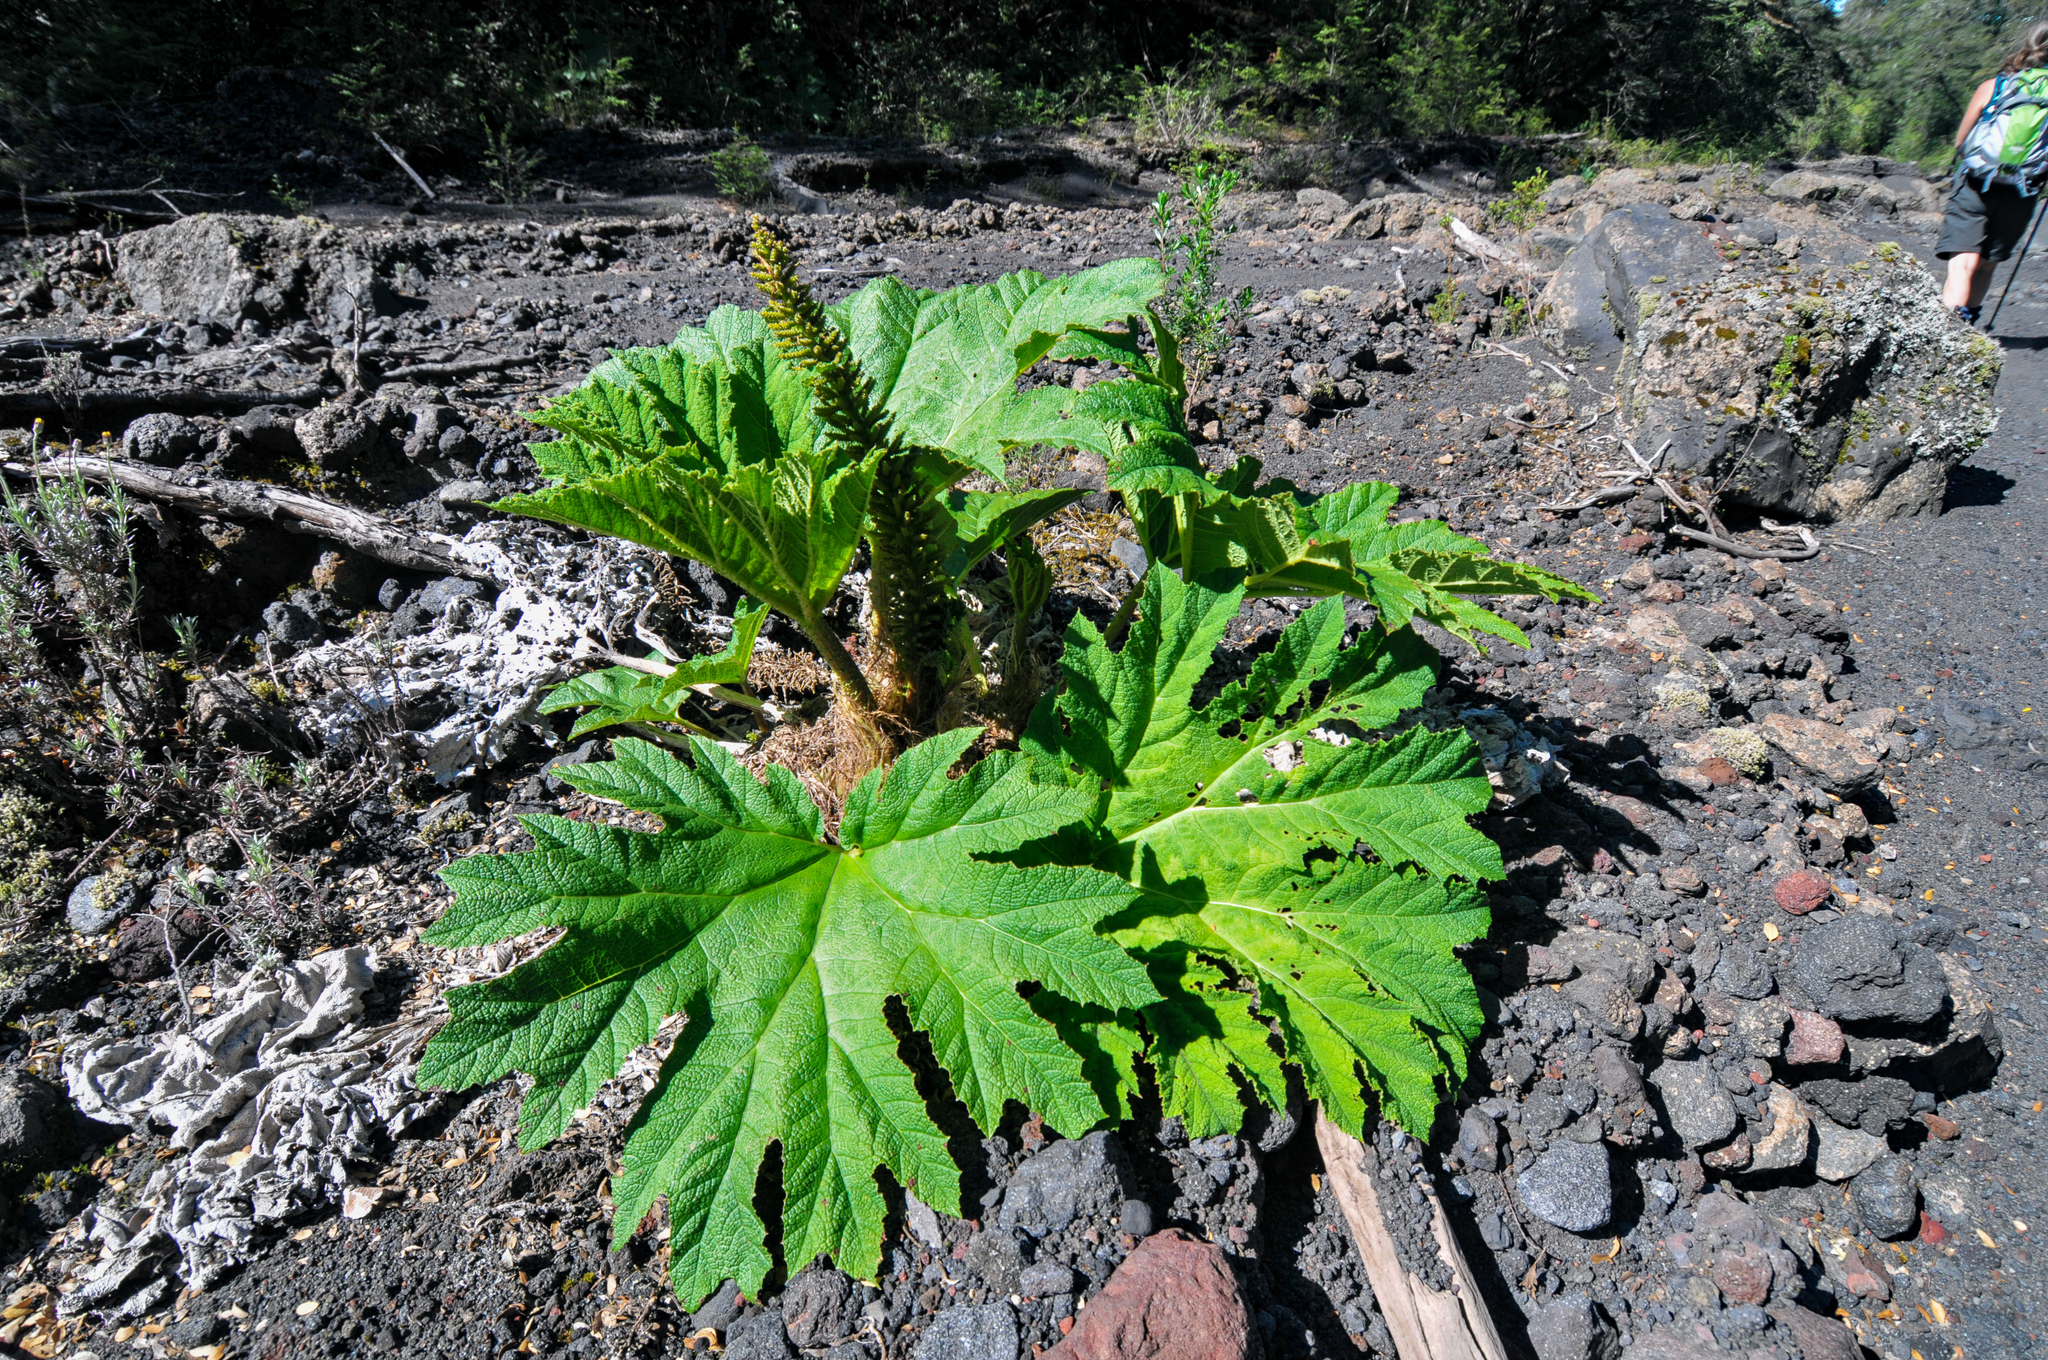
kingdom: Plantae
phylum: Tracheophyta
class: Magnoliopsida
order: Gunnerales
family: Gunneraceae
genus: Gunnera
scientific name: Gunnera tinctoria
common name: Giant-rhubarb
